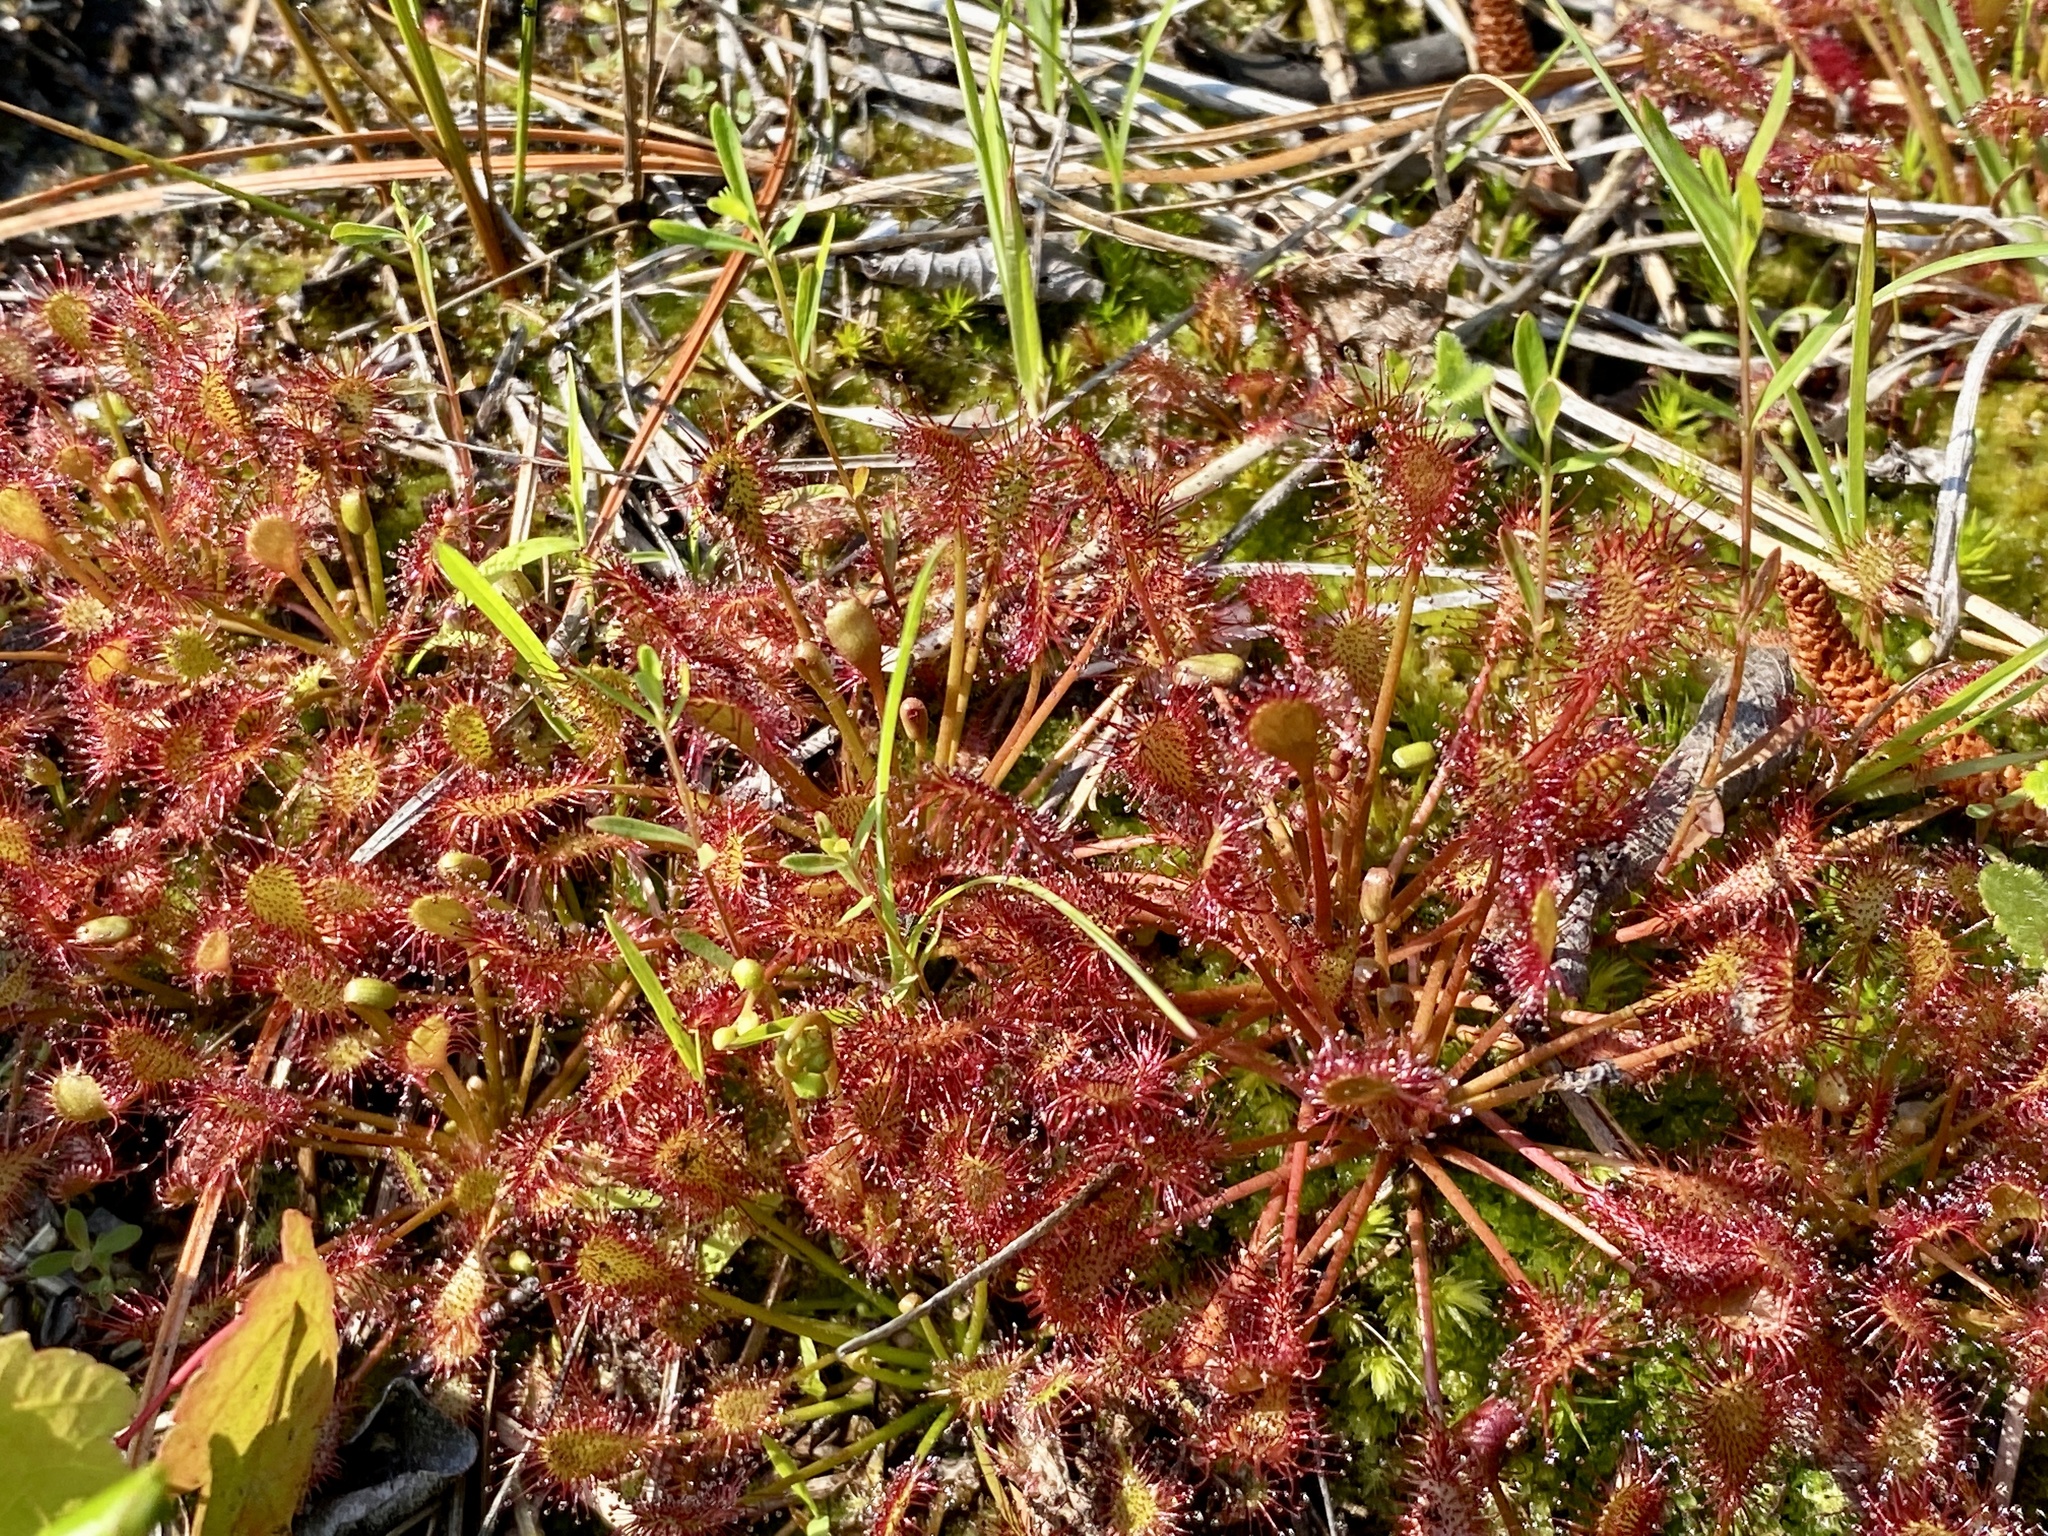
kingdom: Plantae
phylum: Tracheophyta
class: Magnoliopsida
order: Caryophyllales
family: Droseraceae
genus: Drosera
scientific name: Drosera intermedia
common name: Oblong-leaved sundew
